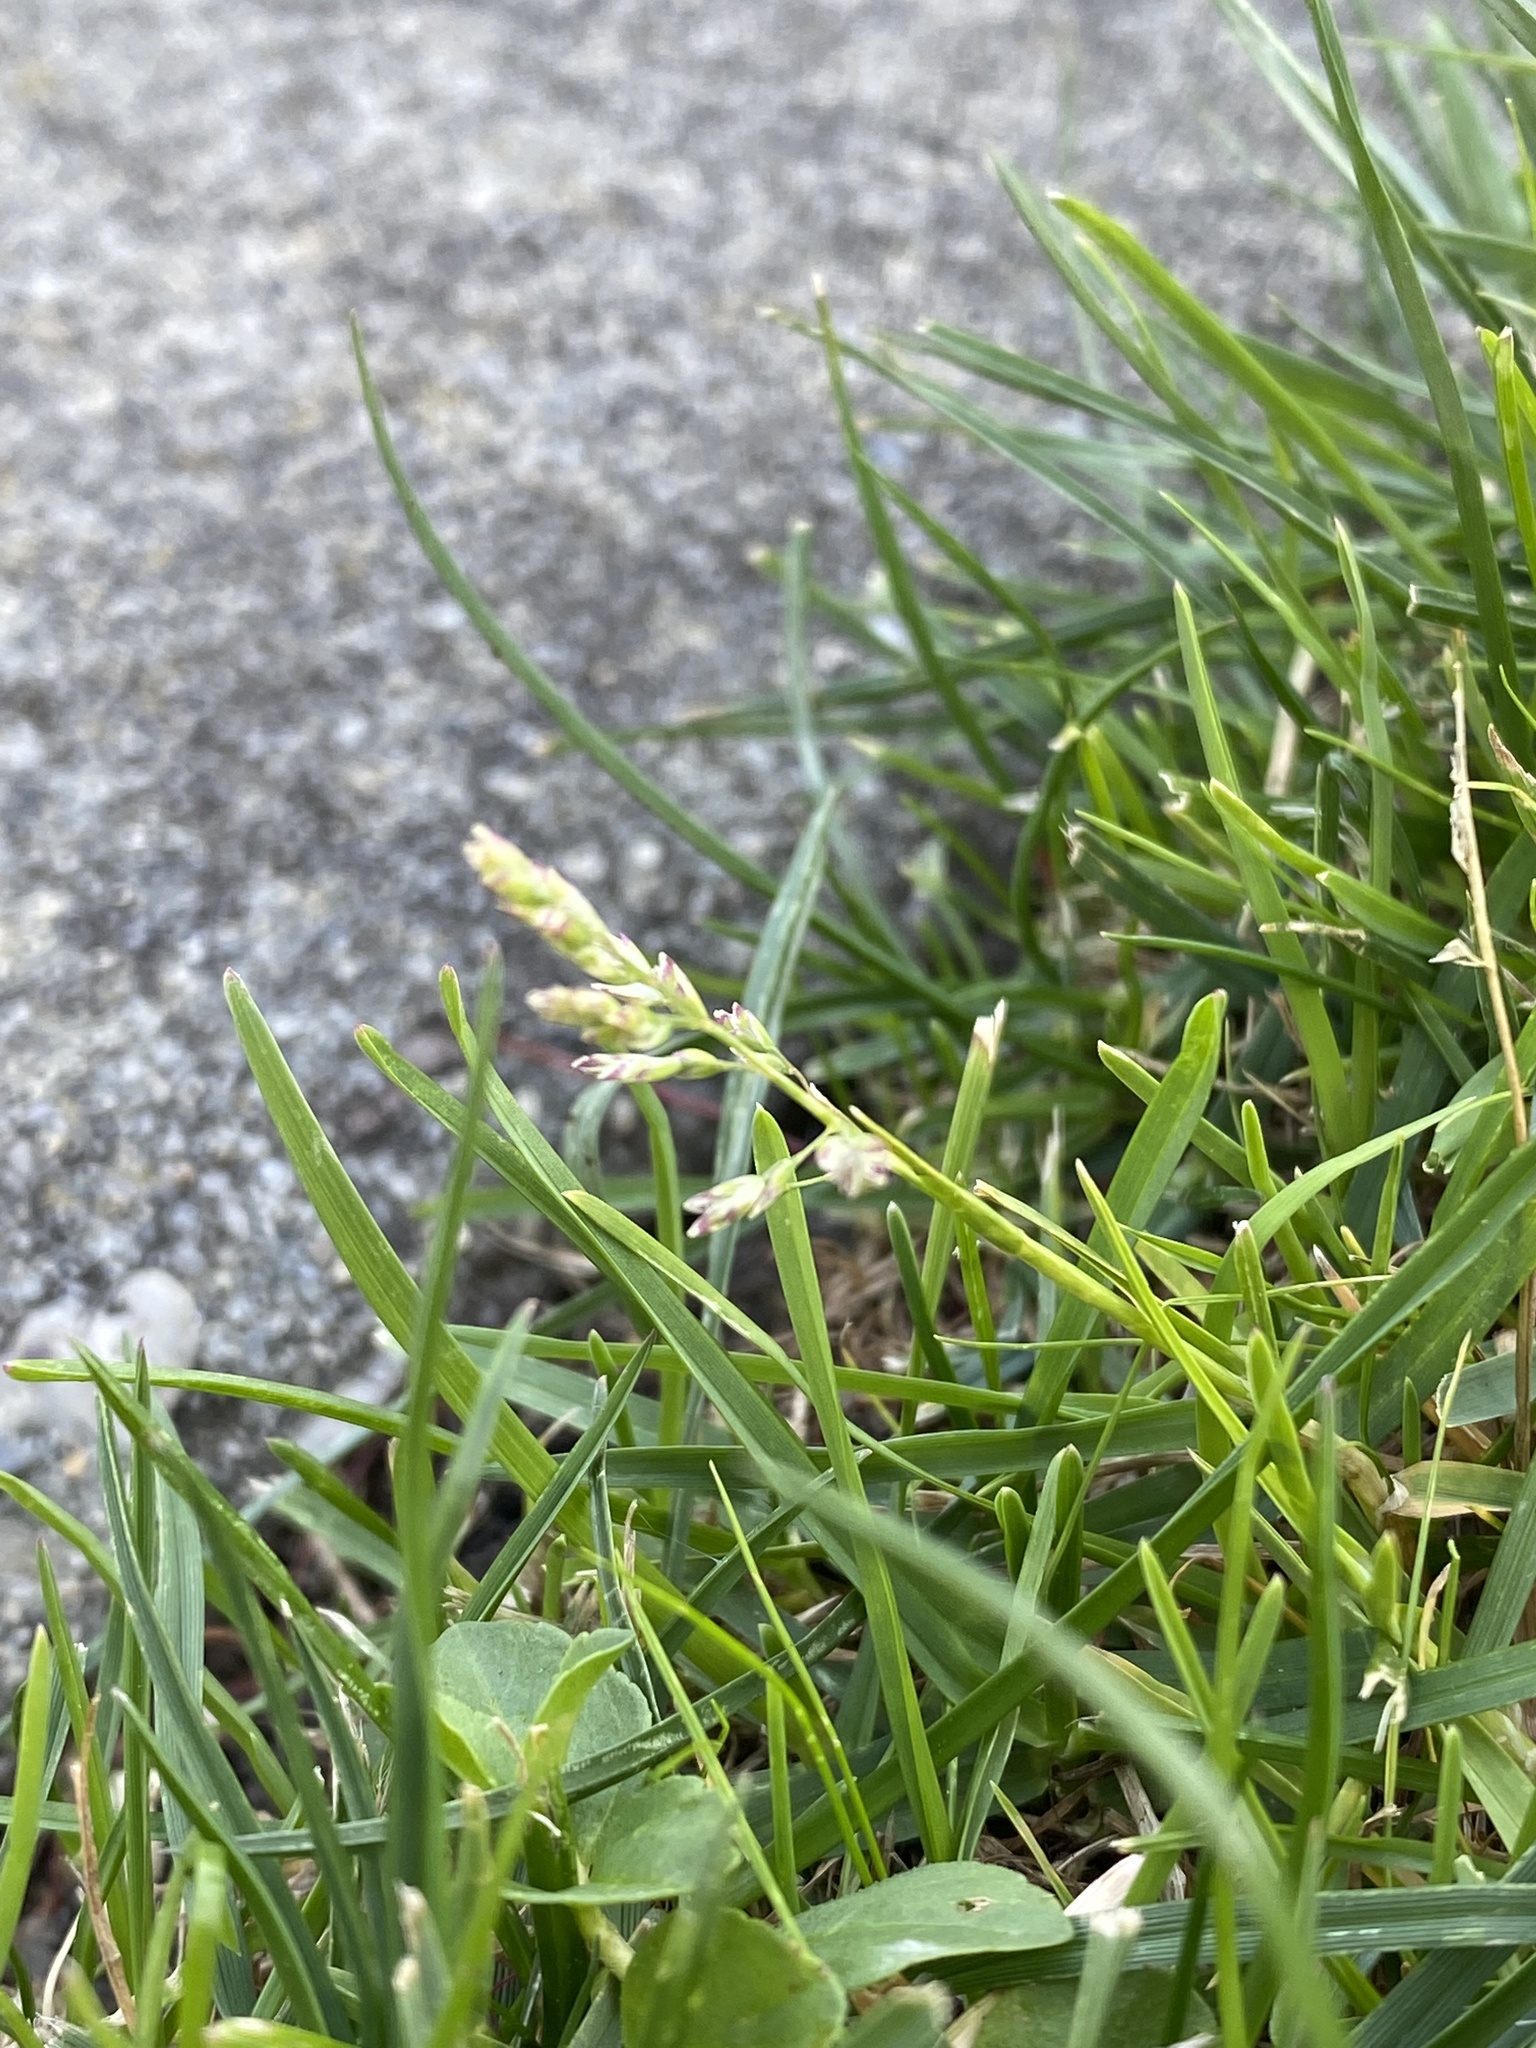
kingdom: Plantae
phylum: Tracheophyta
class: Liliopsida
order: Poales
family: Poaceae
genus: Poa
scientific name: Poa annua
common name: Annual bluegrass
